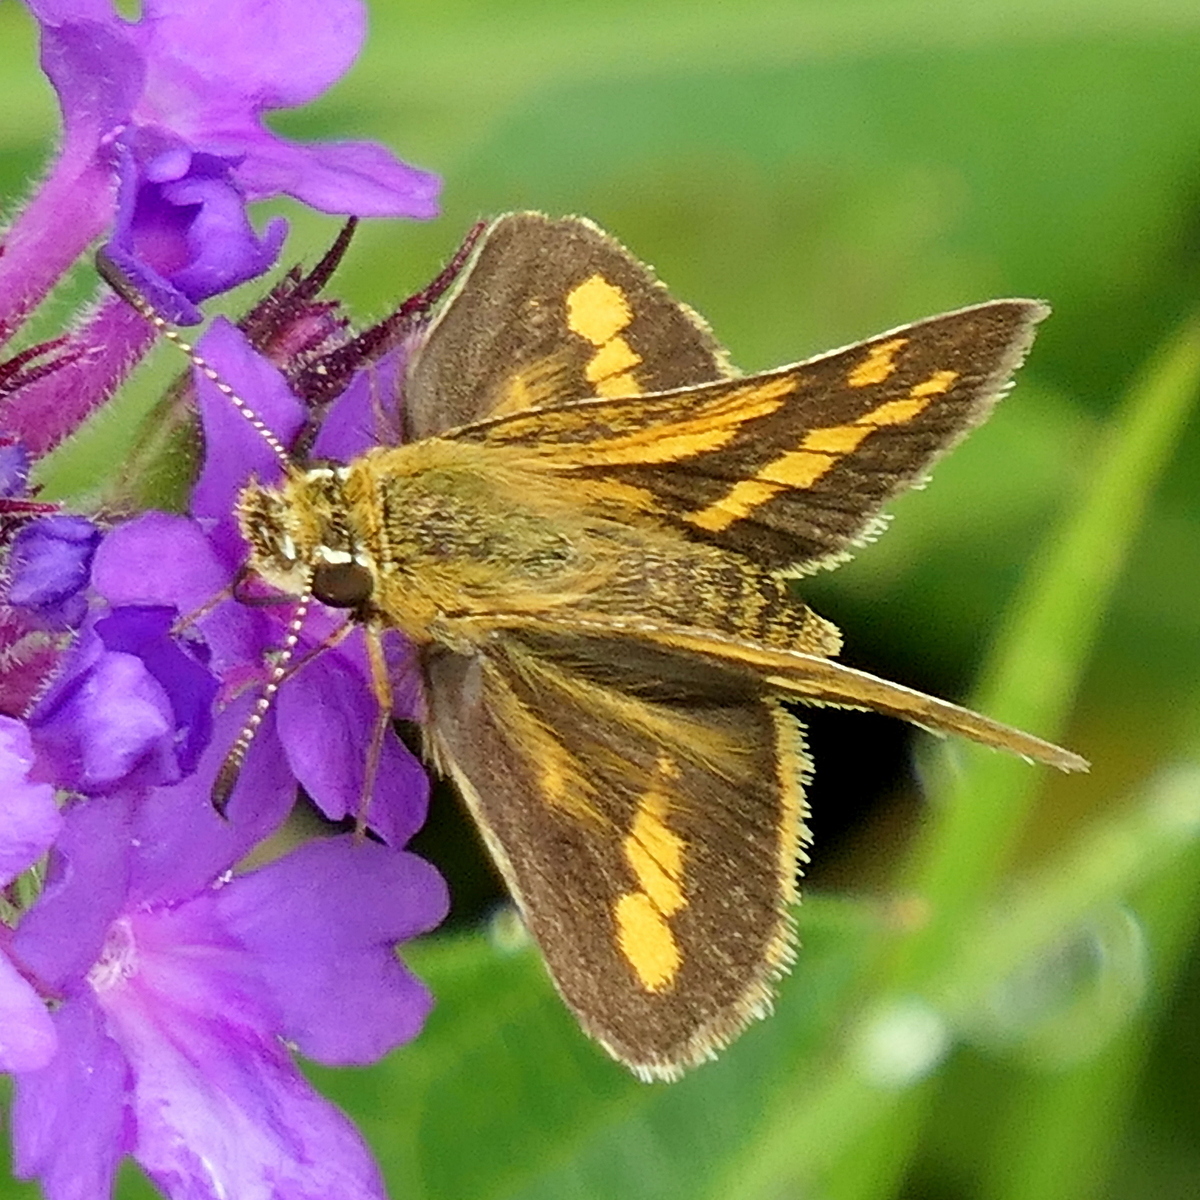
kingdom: Animalia
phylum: Arthropoda
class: Insecta
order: Lepidoptera
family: Hesperiidae
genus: Ocybadistes
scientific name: Ocybadistes flavovittata
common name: Narrow-brand grass-dart
